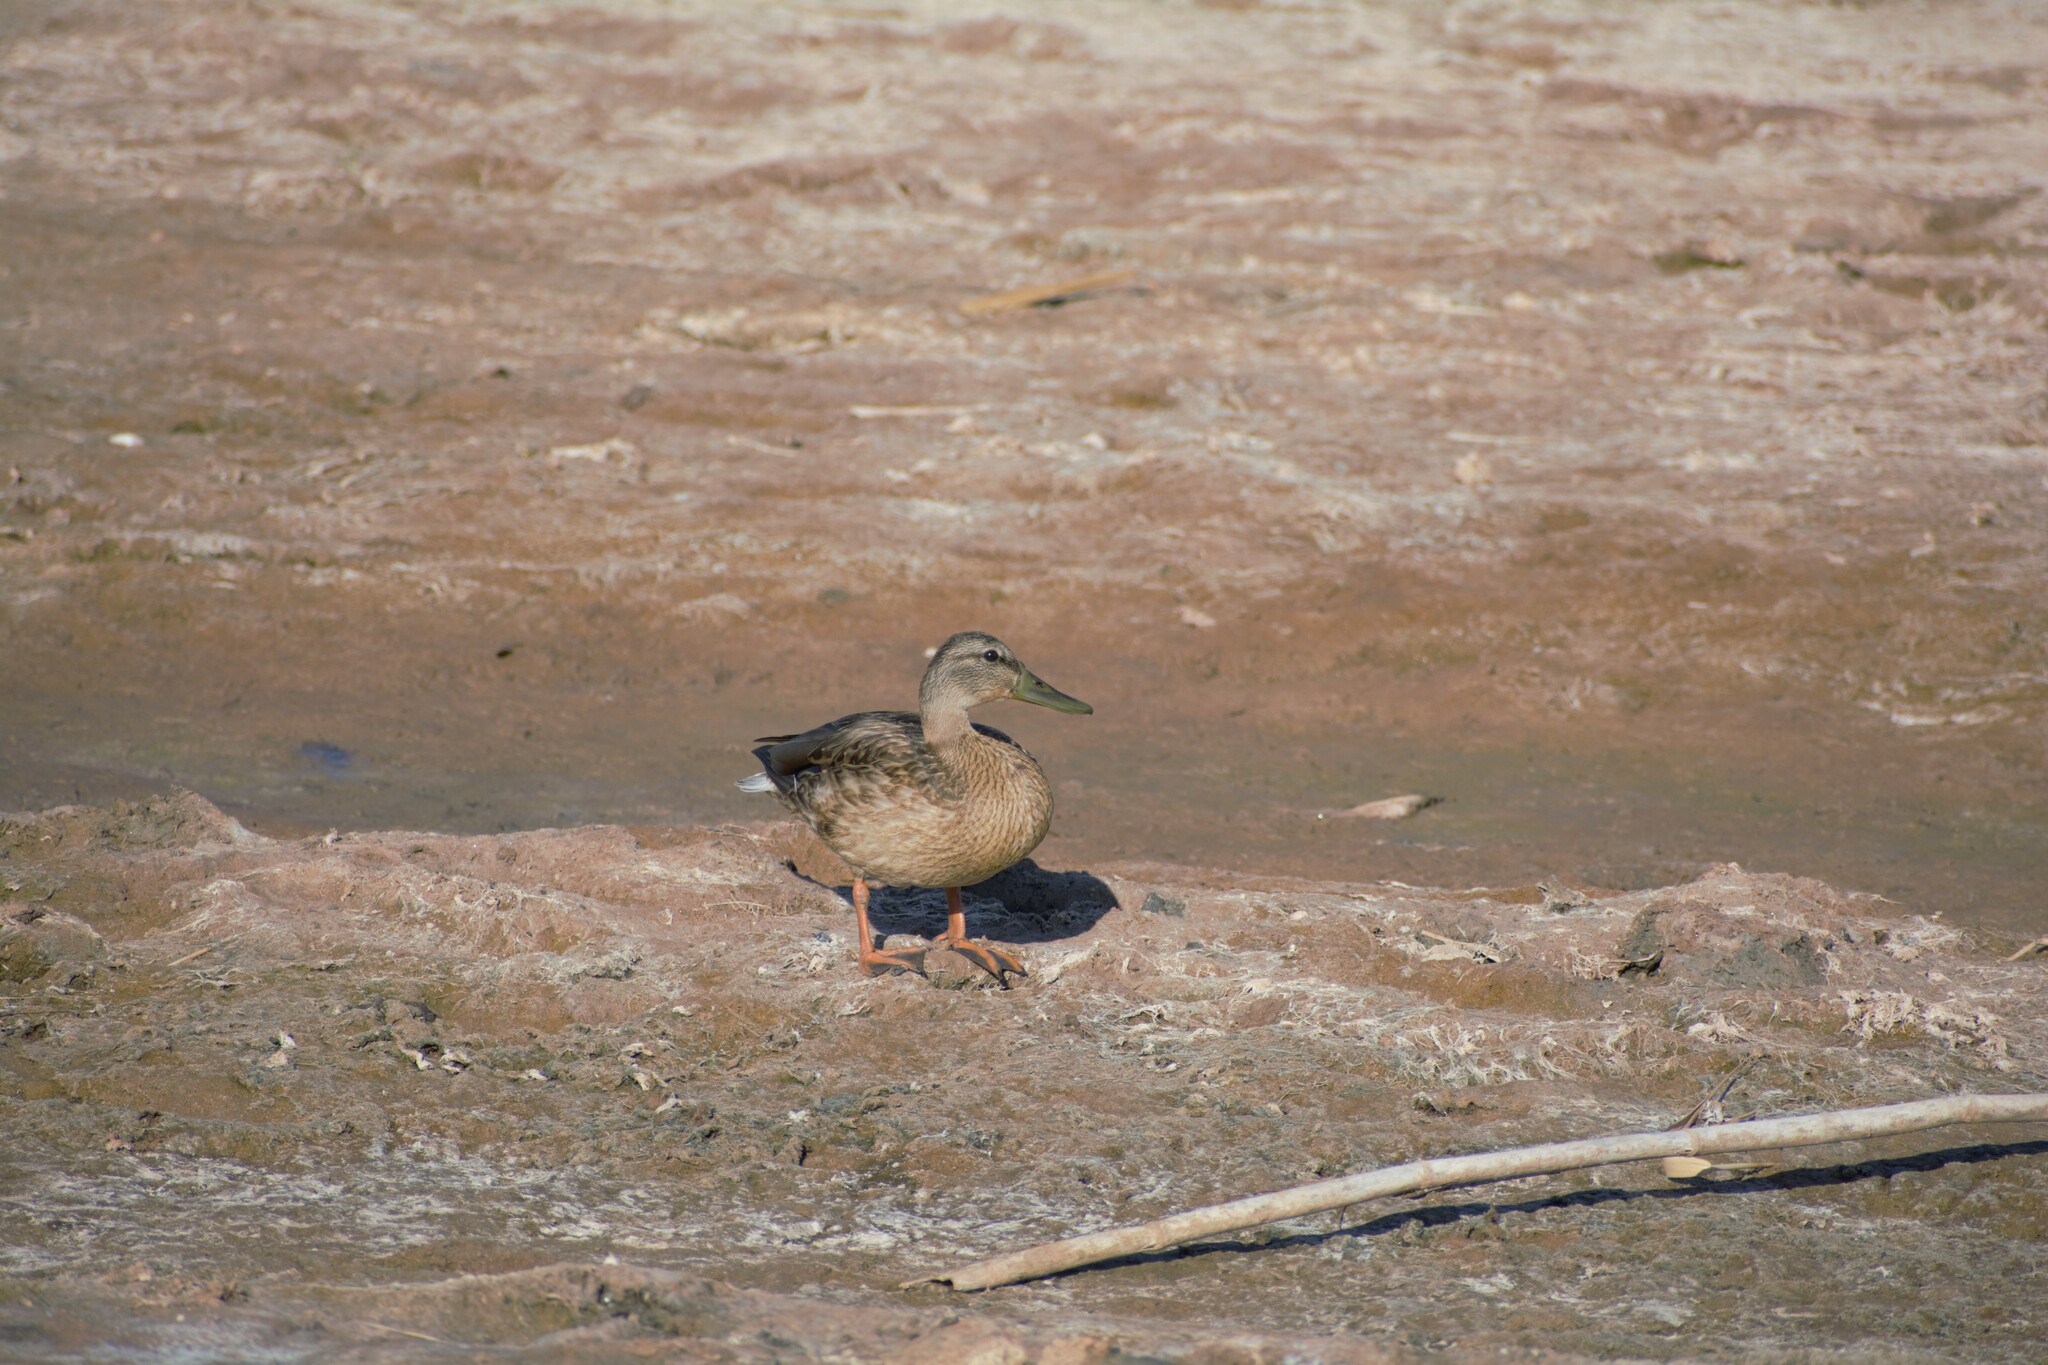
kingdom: Animalia
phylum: Chordata
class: Aves
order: Anseriformes
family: Anatidae
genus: Anas
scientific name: Anas platyrhynchos
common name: Mallard
